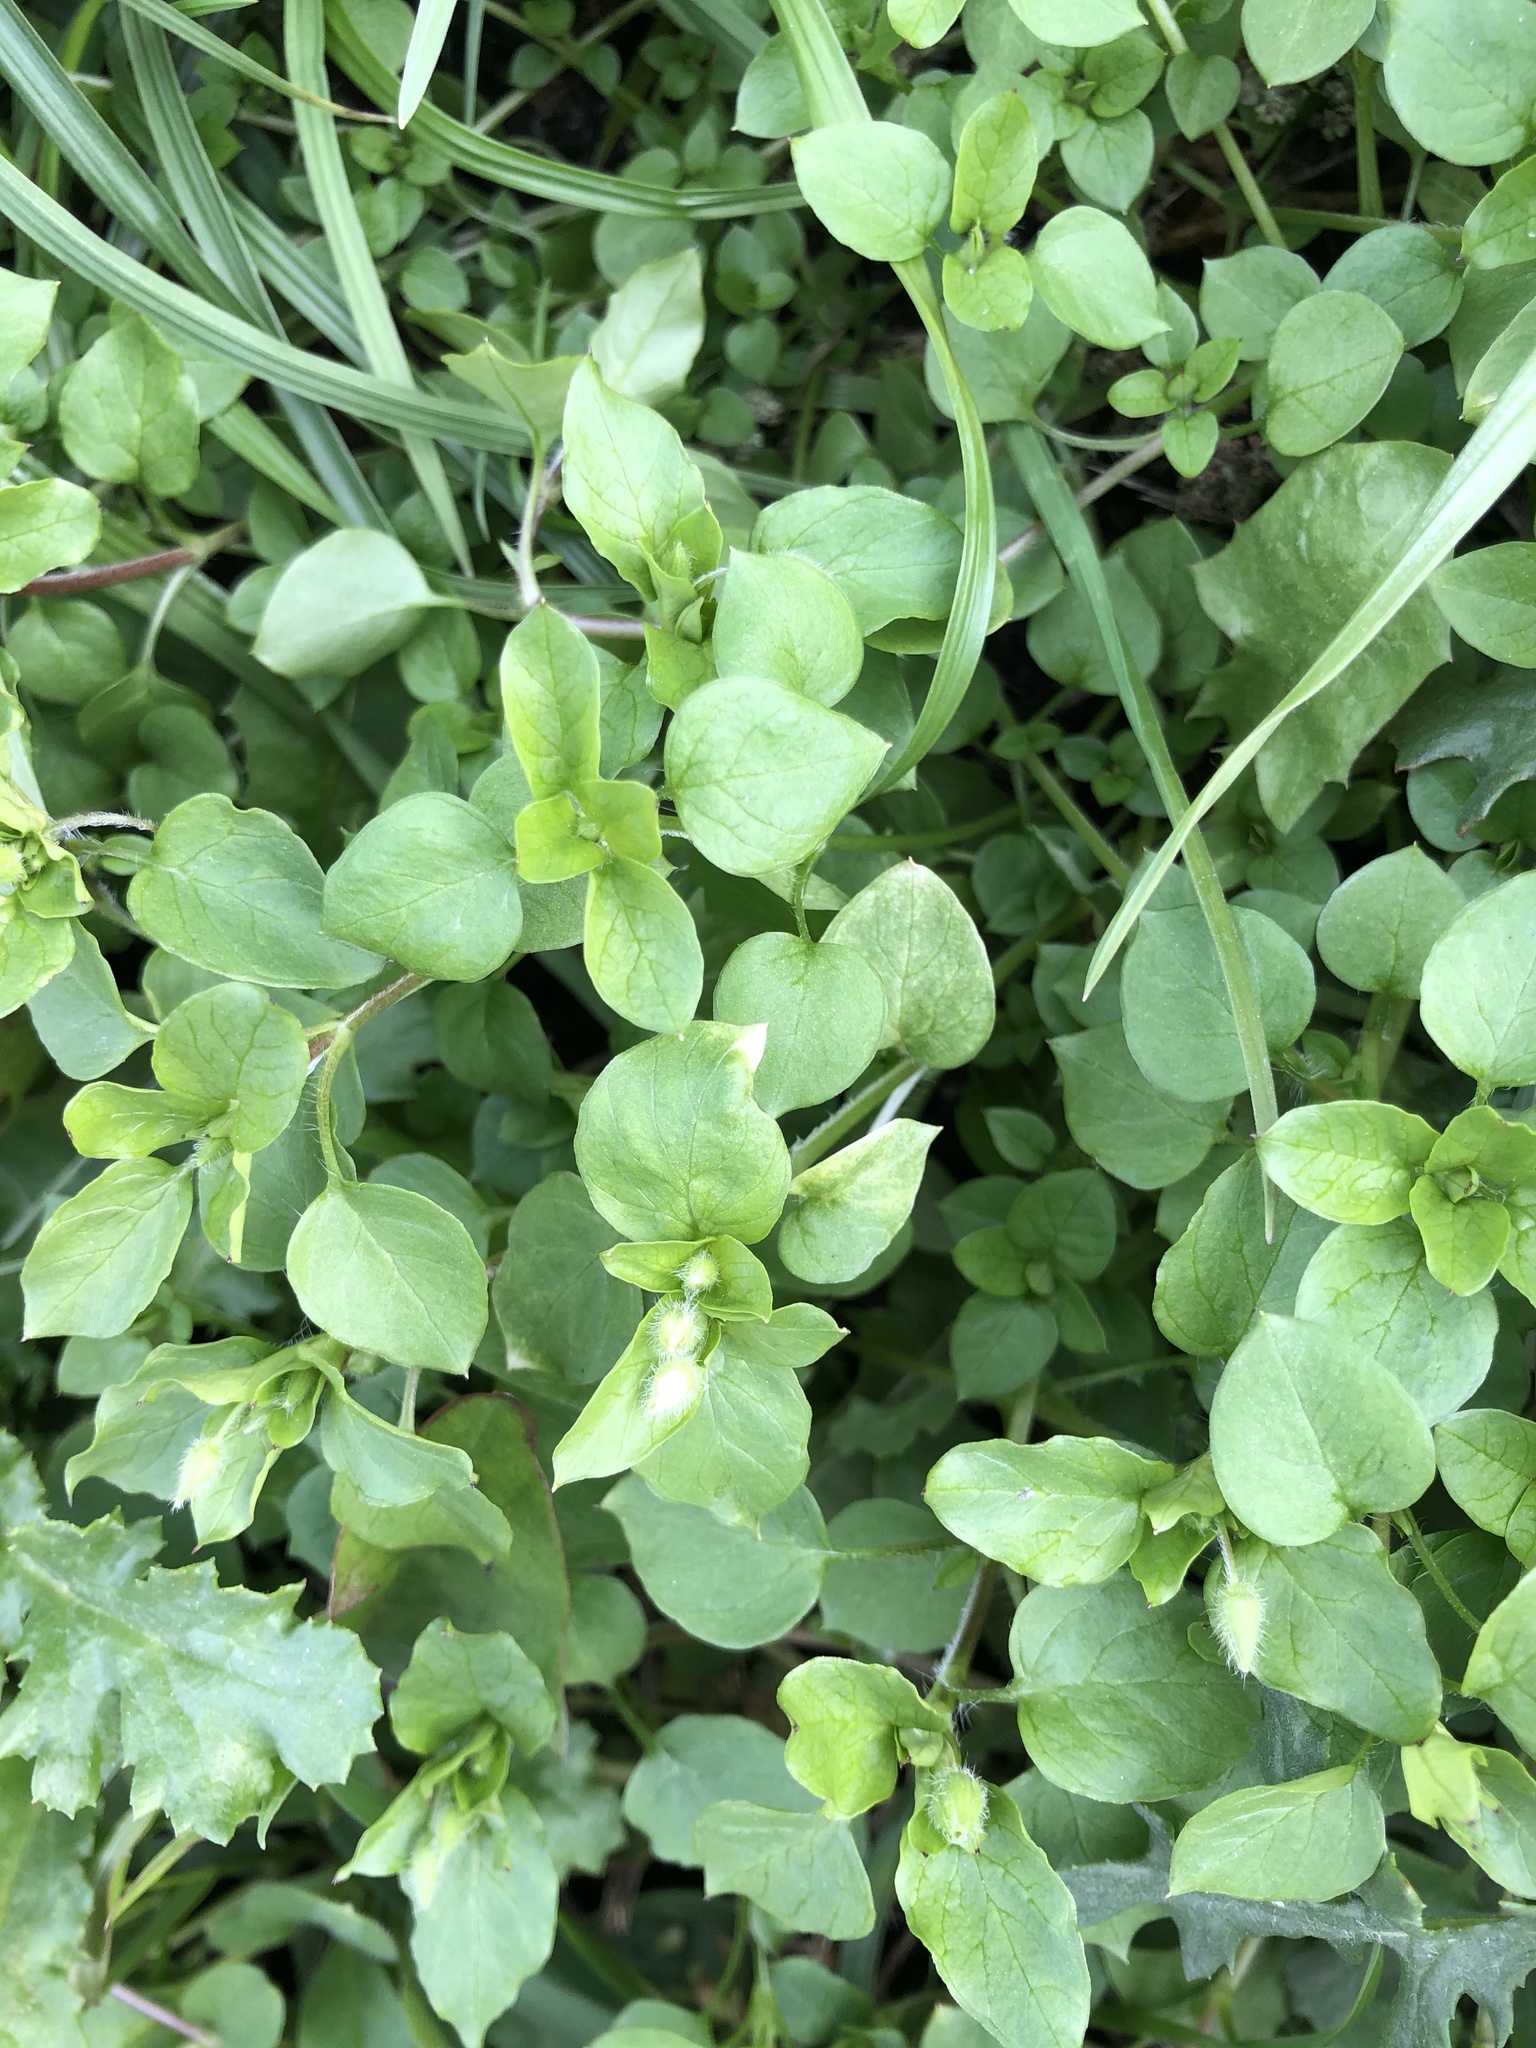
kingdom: Plantae
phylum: Tracheophyta
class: Magnoliopsida
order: Caryophyllales
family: Caryophyllaceae
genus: Stellaria
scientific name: Stellaria media
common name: Common chickweed
